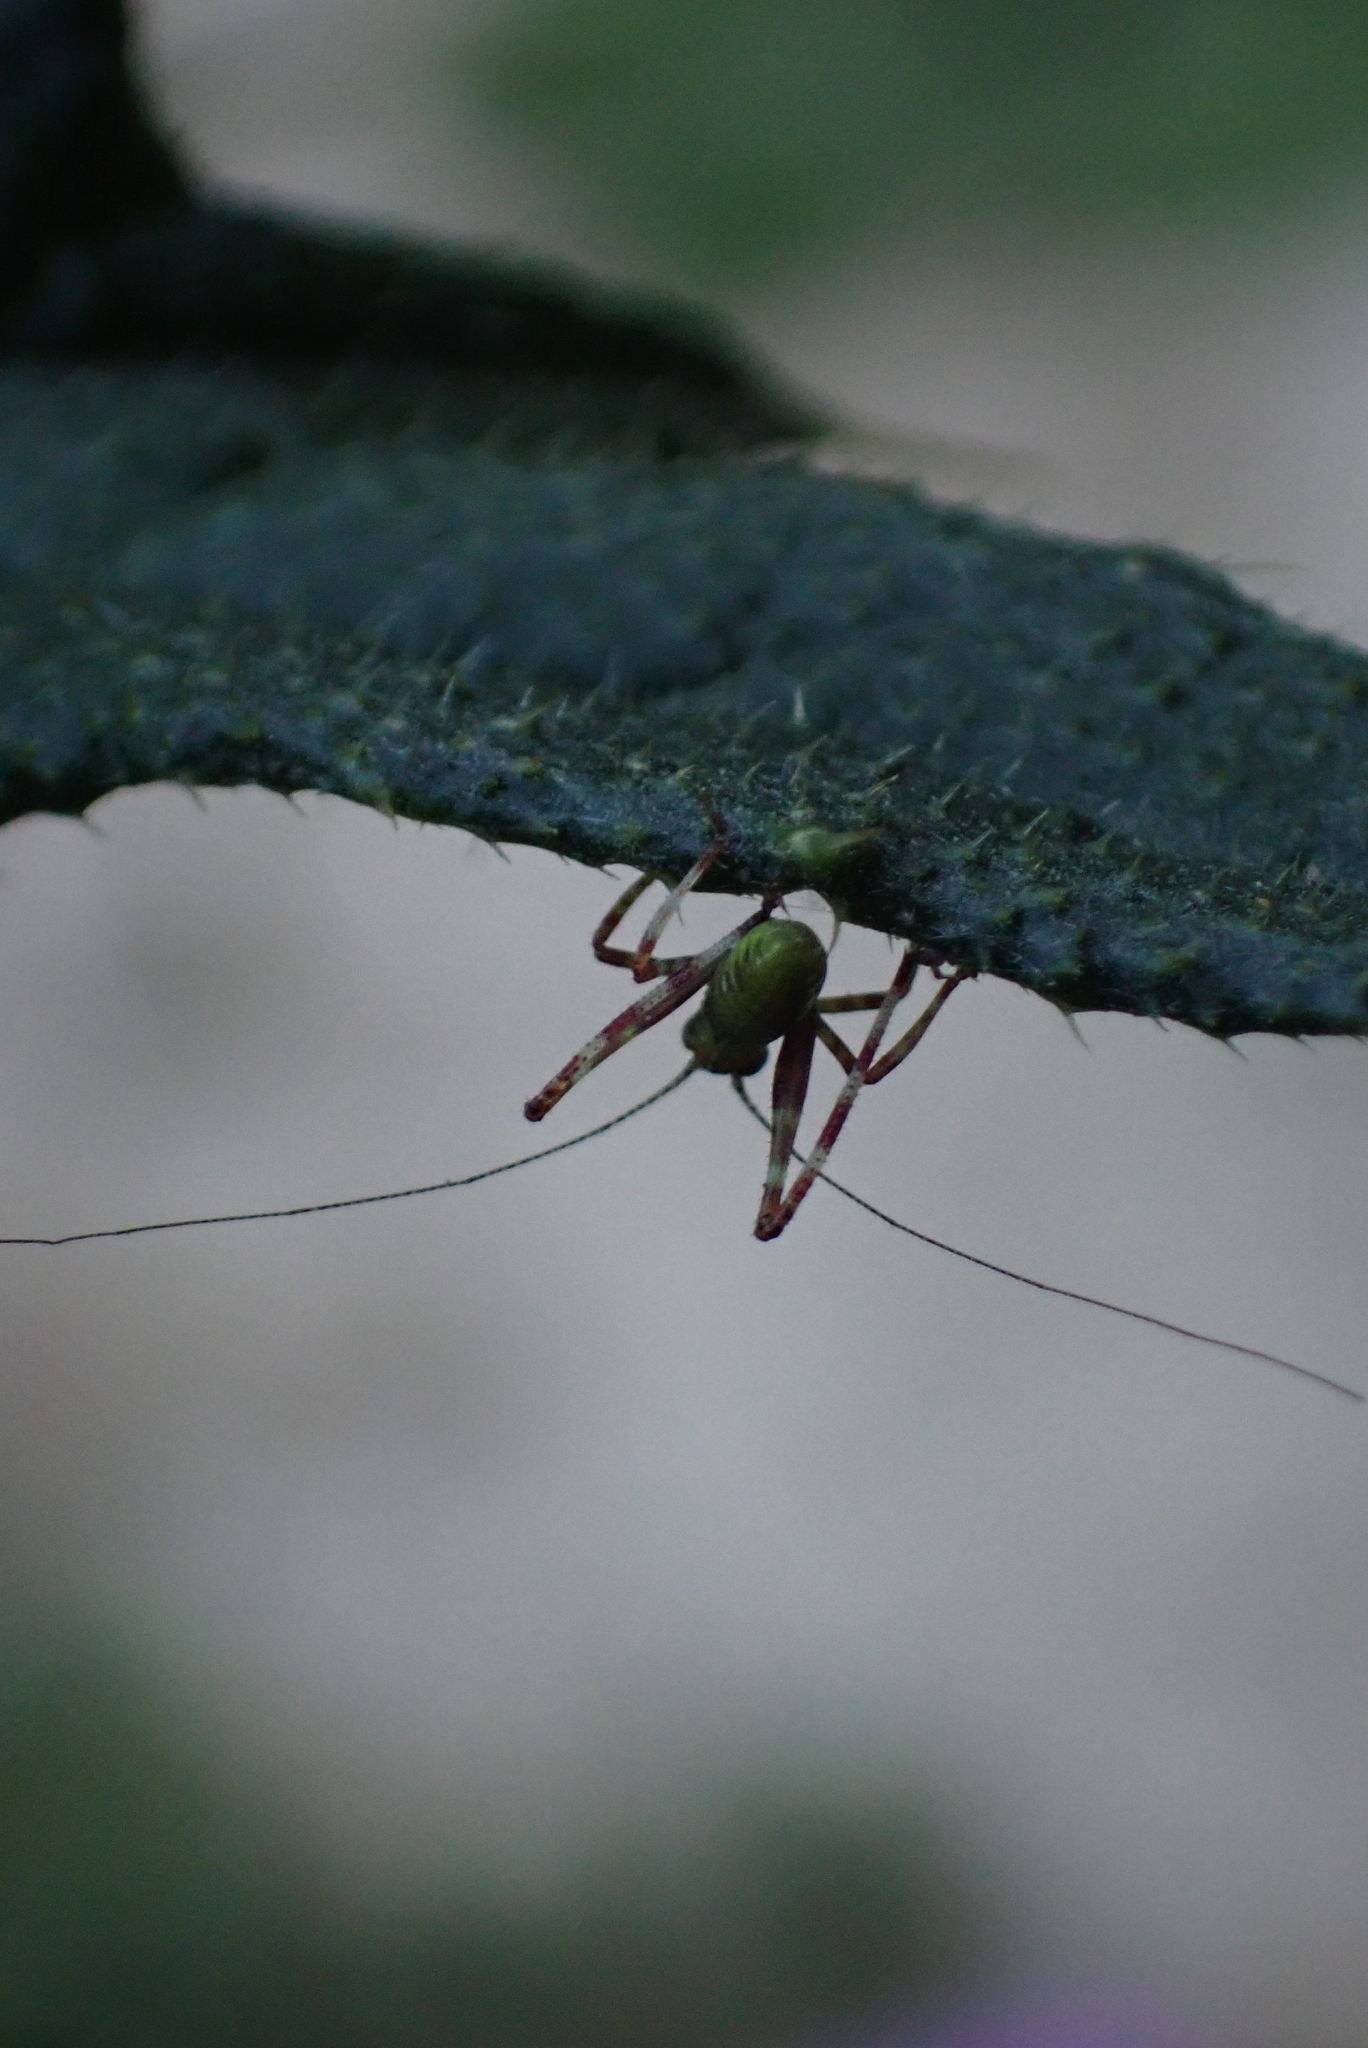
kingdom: Animalia
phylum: Arthropoda
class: Insecta
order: Orthoptera
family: Tettigoniidae
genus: Caedicia
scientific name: Caedicia simplex
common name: Common garden katydid
